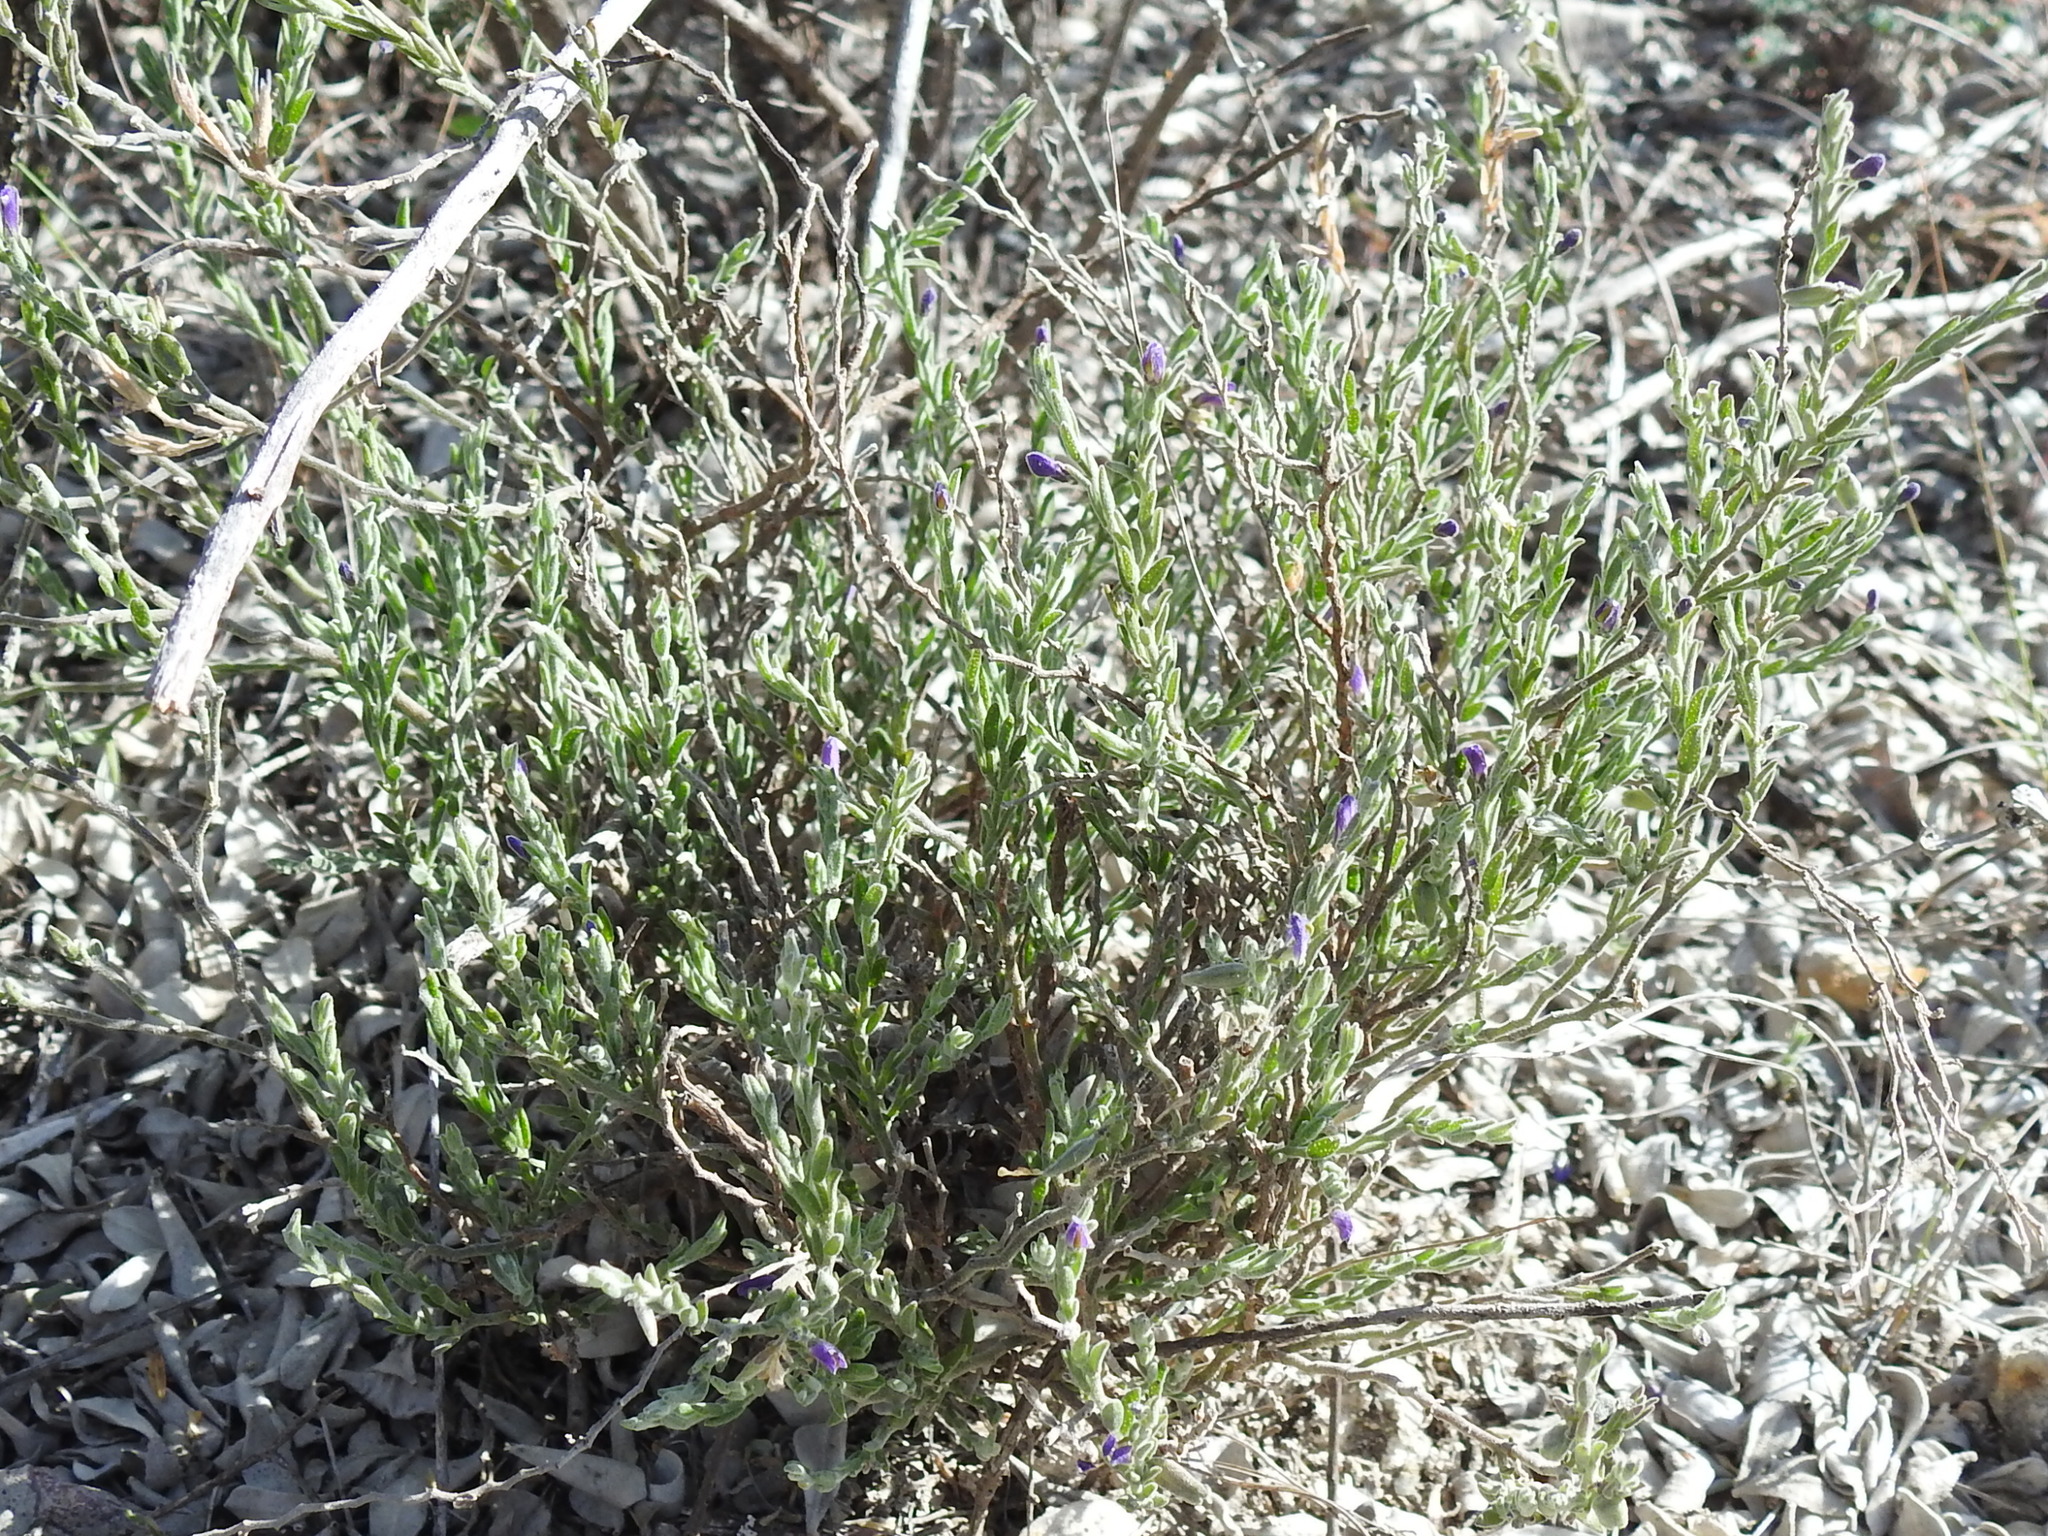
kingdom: Plantae
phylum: Tracheophyta
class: Magnoliopsida
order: Fabales
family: Polygalaceae
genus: Hebecarpa
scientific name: Hebecarpa macradenia
